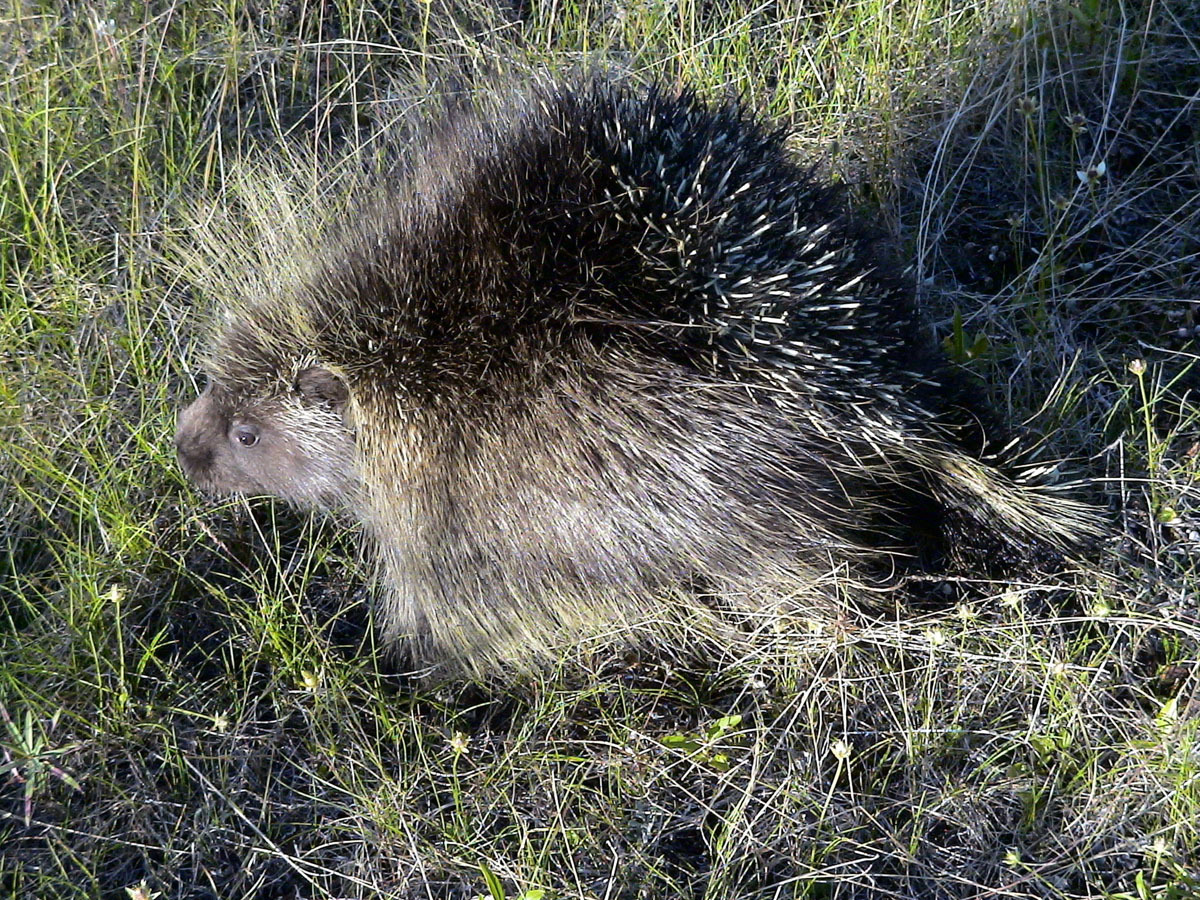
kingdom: Animalia
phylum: Chordata
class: Mammalia
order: Rodentia
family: Erethizontidae
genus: Erethizon
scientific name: Erethizon dorsatus
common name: North american porcupine
